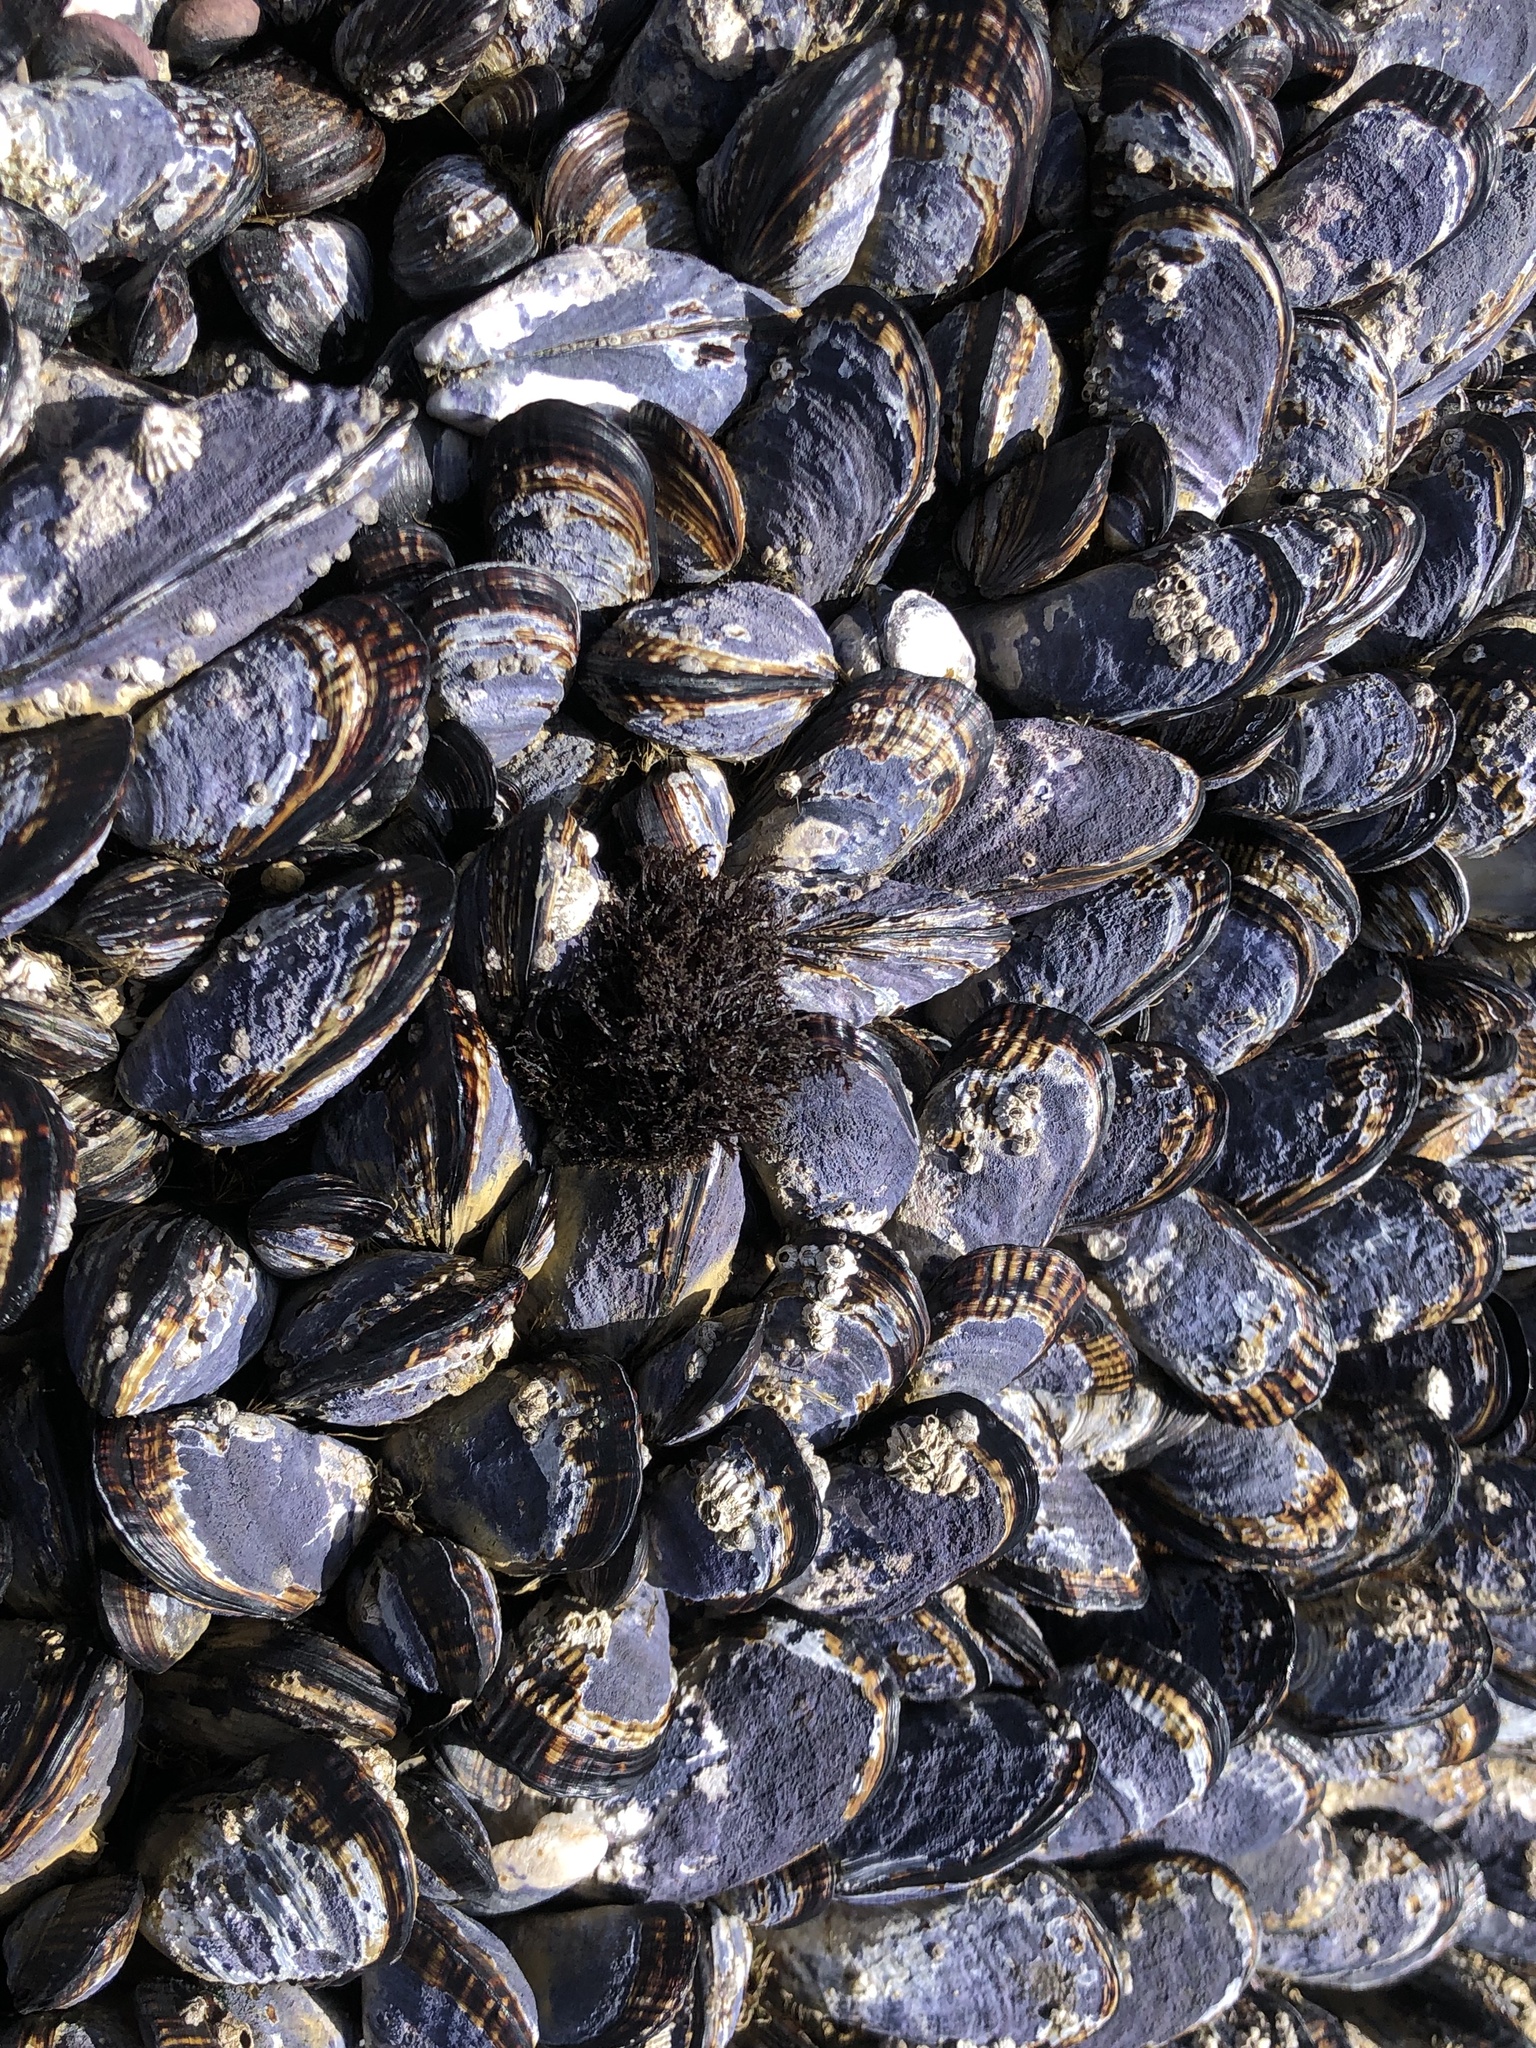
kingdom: Animalia
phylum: Mollusca
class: Bivalvia
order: Mytilida
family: Mytilidae
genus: Mytilus
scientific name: Mytilus californianus
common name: California mussel
